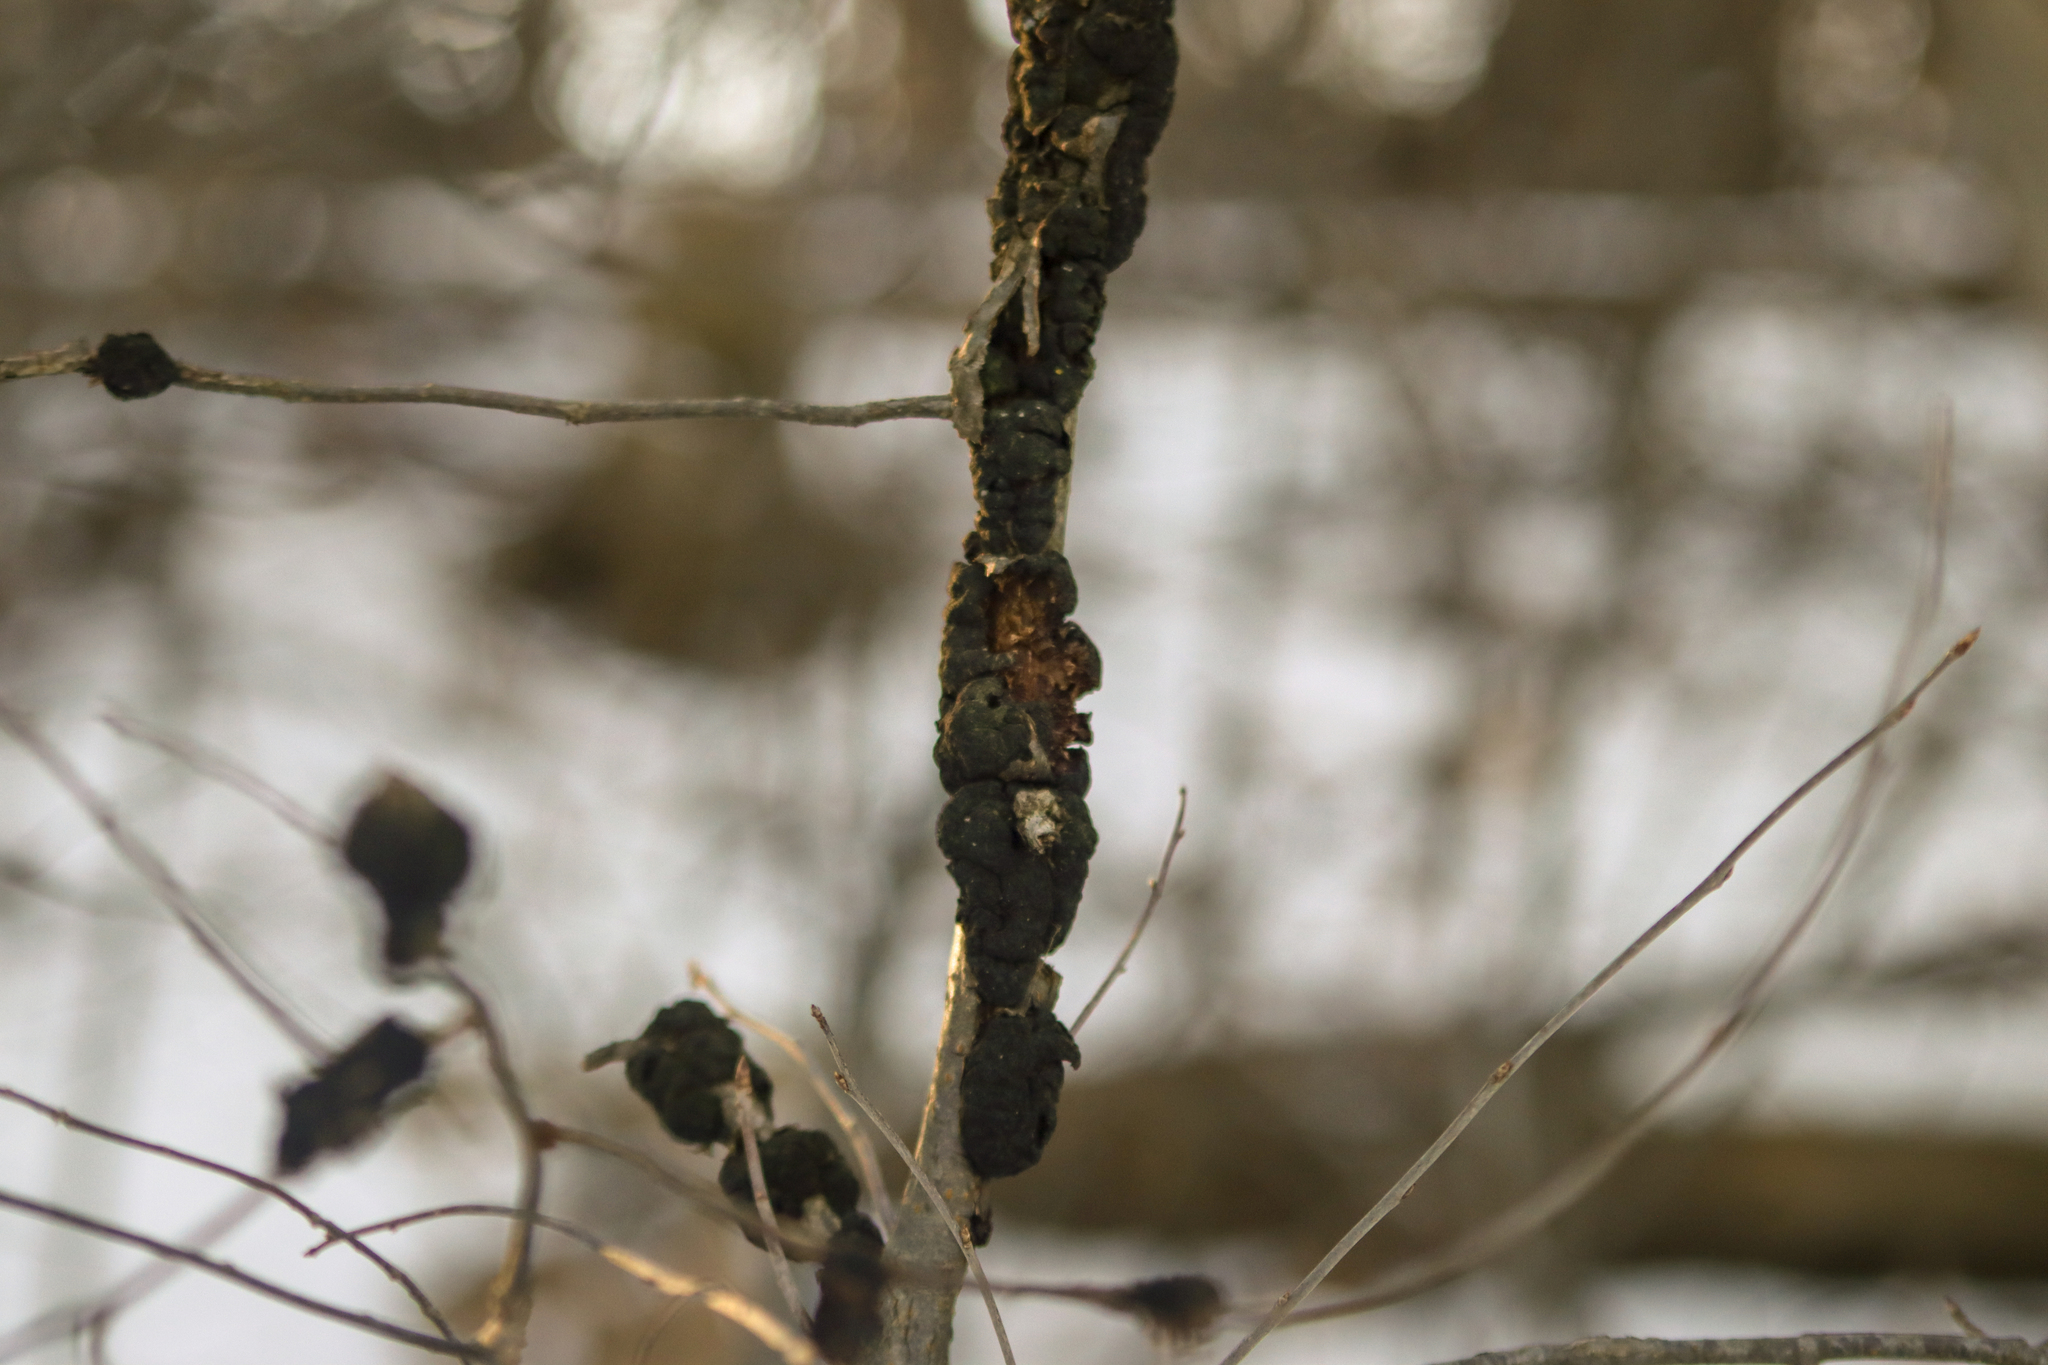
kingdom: Fungi
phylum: Ascomycota
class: Dothideomycetes
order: Venturiales
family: Venturiaceae
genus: Apiosporina
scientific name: Apiosporina morbosa
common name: Black knot
